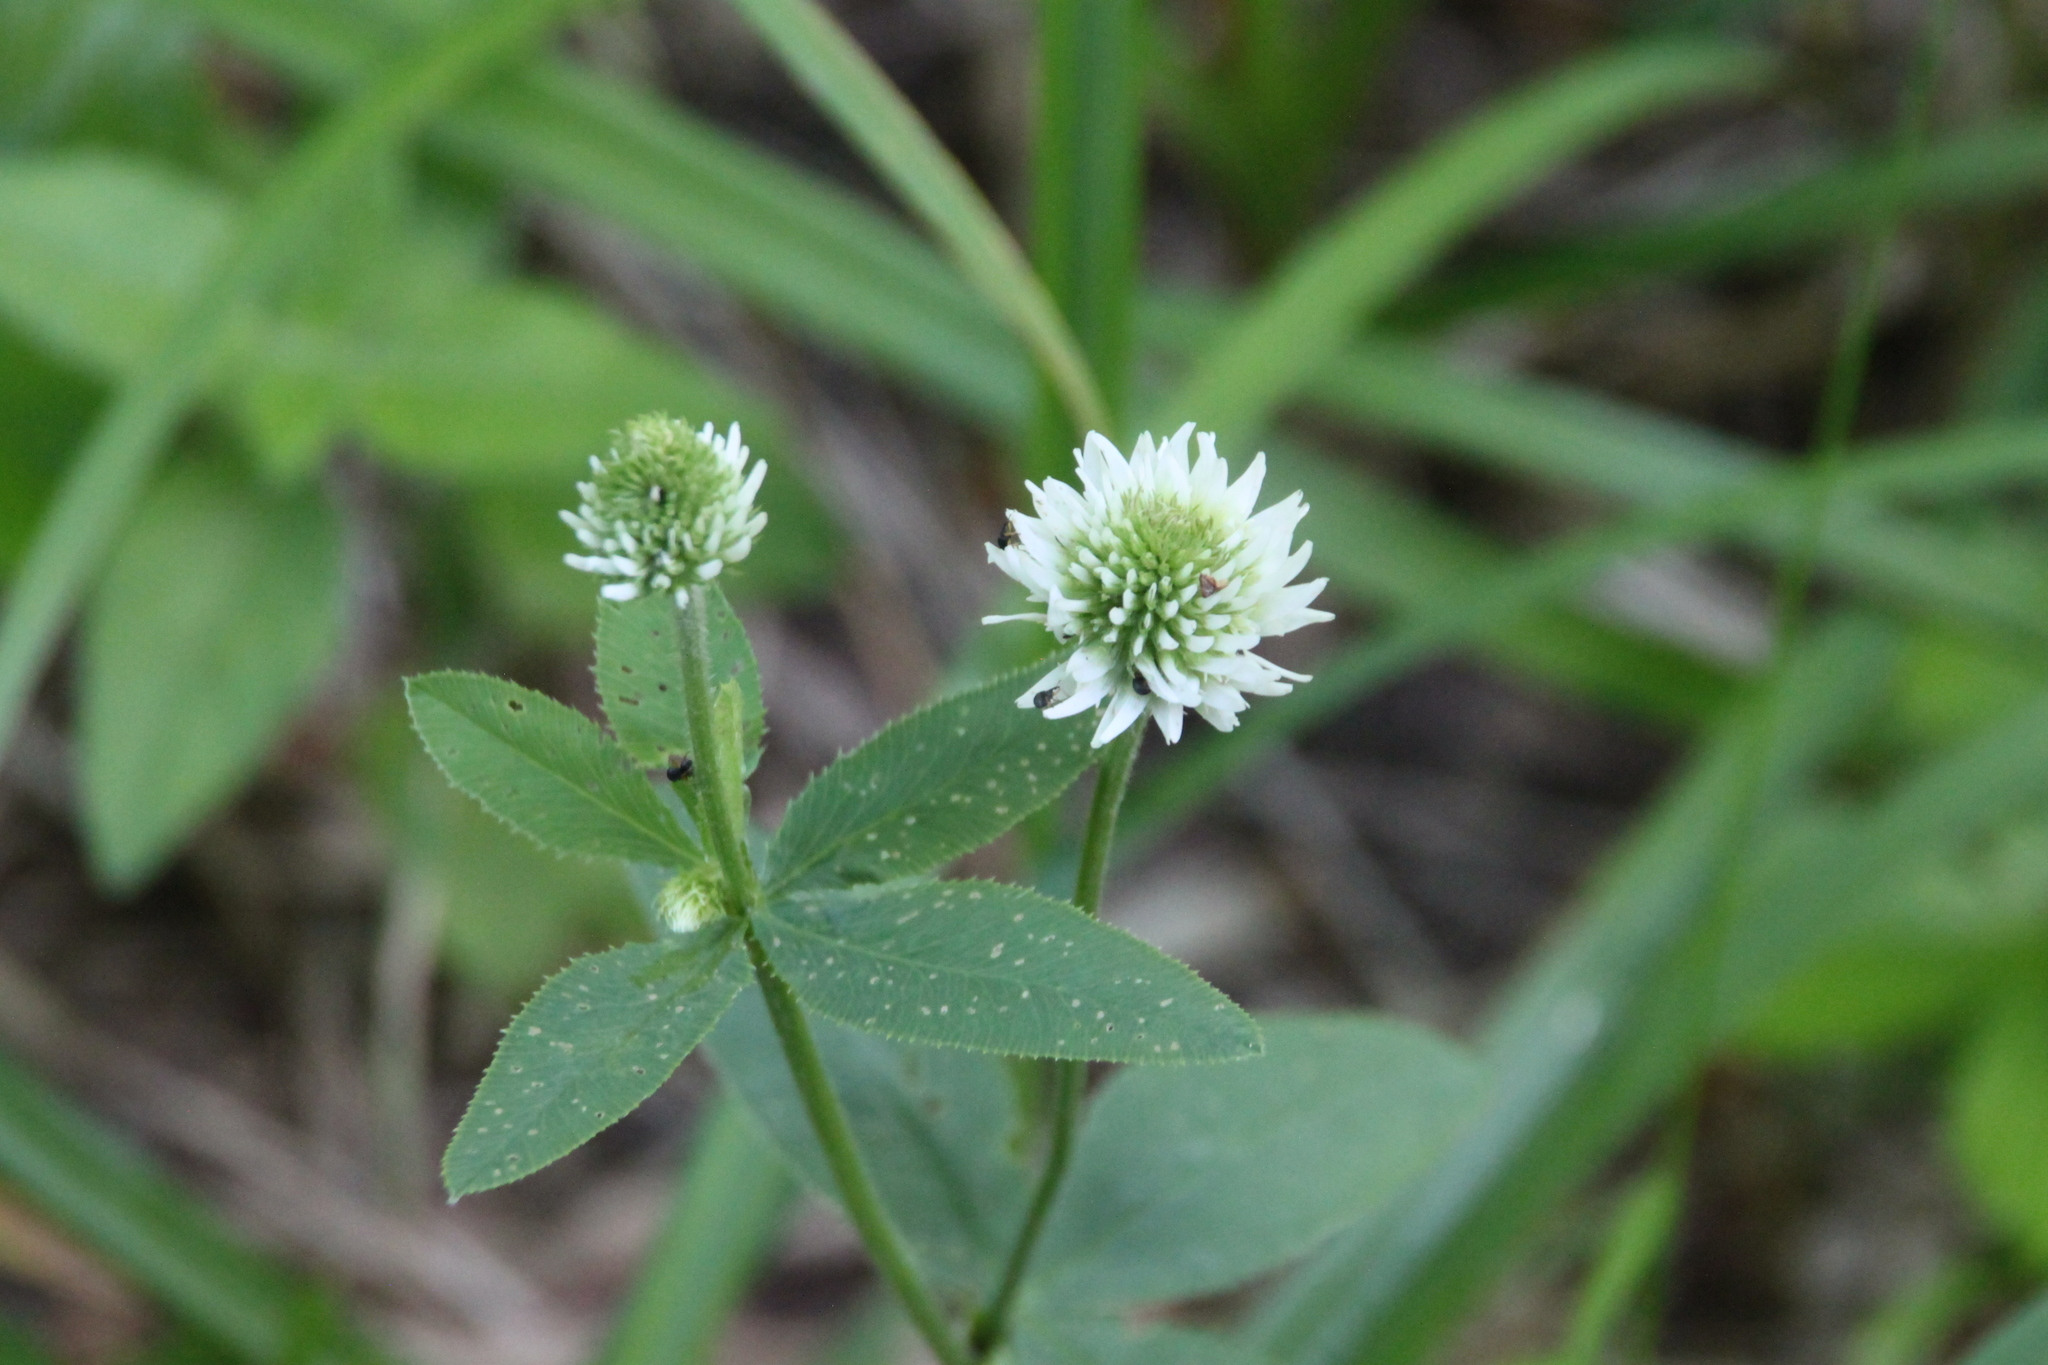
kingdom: Plantae
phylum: Tracheophyta
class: Magnoliopsida
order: Fabales
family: Fabaceae
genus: Trifolium
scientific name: Trifolium montanum
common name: Mountain clover
